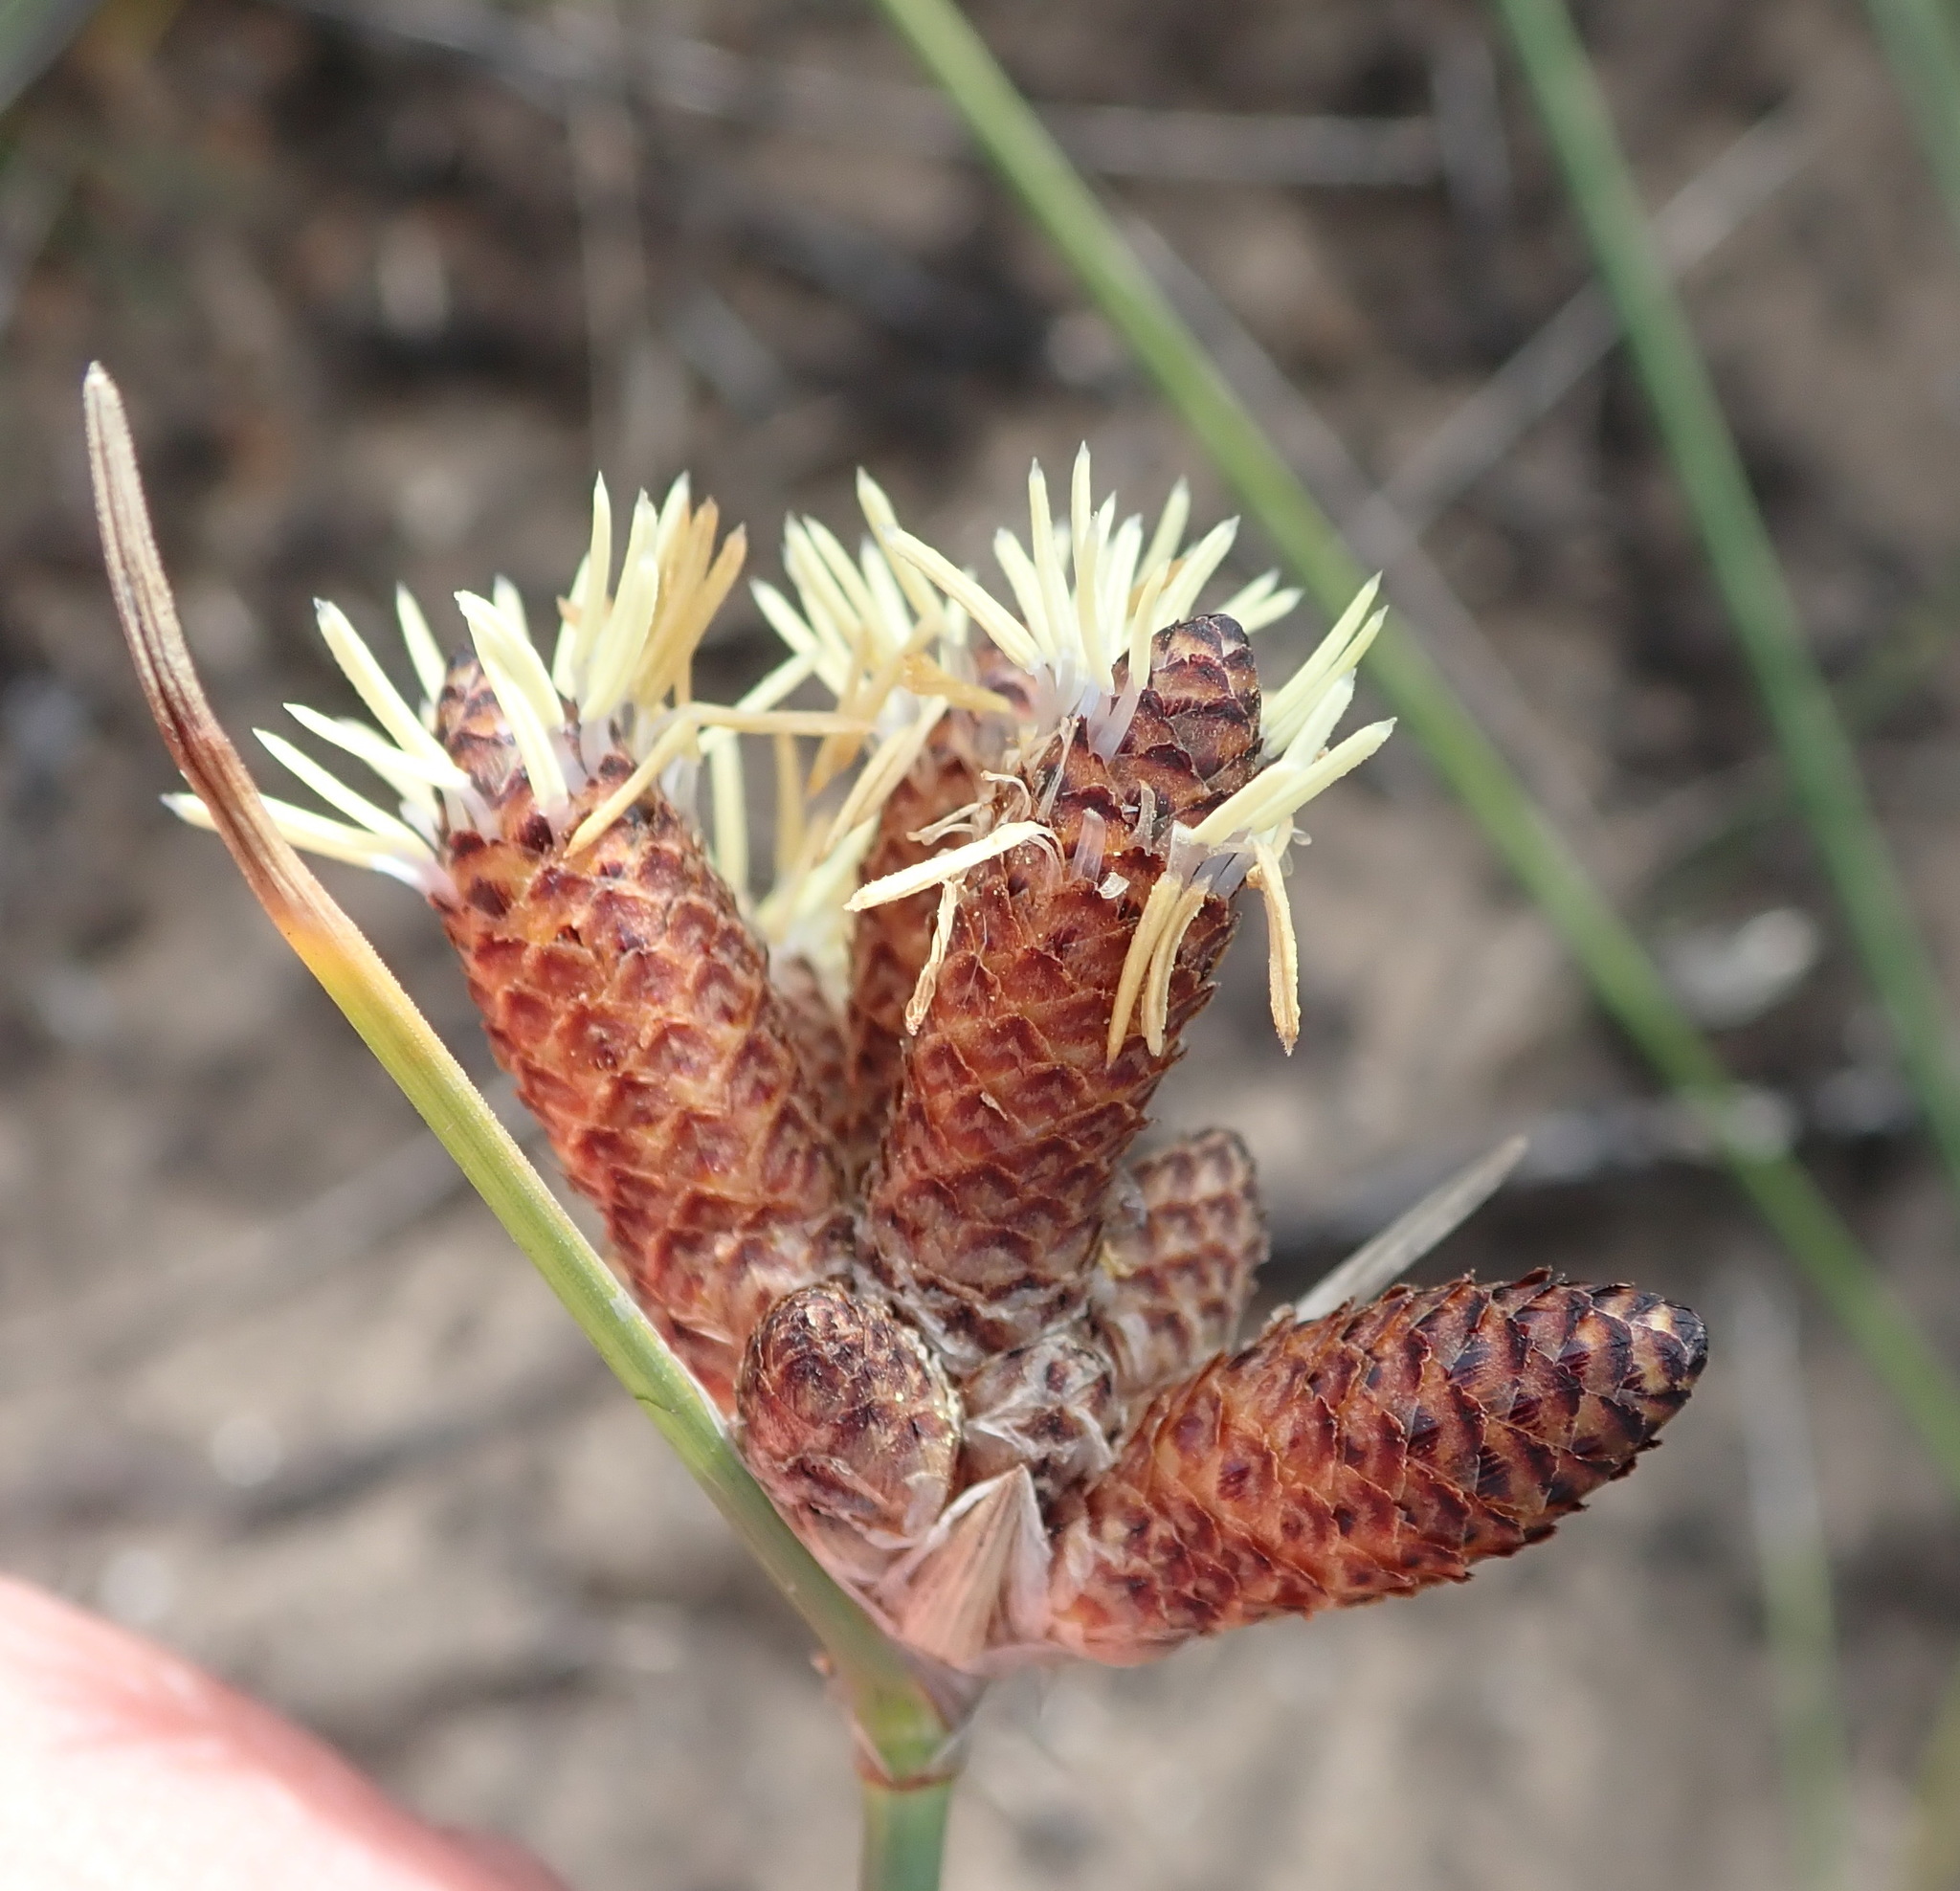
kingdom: Plantae
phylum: Tracheophyta
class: Liliopsida
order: Poales
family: Cyperaceae
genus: Hellmuthia
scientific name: Hellmuthia membranacea
